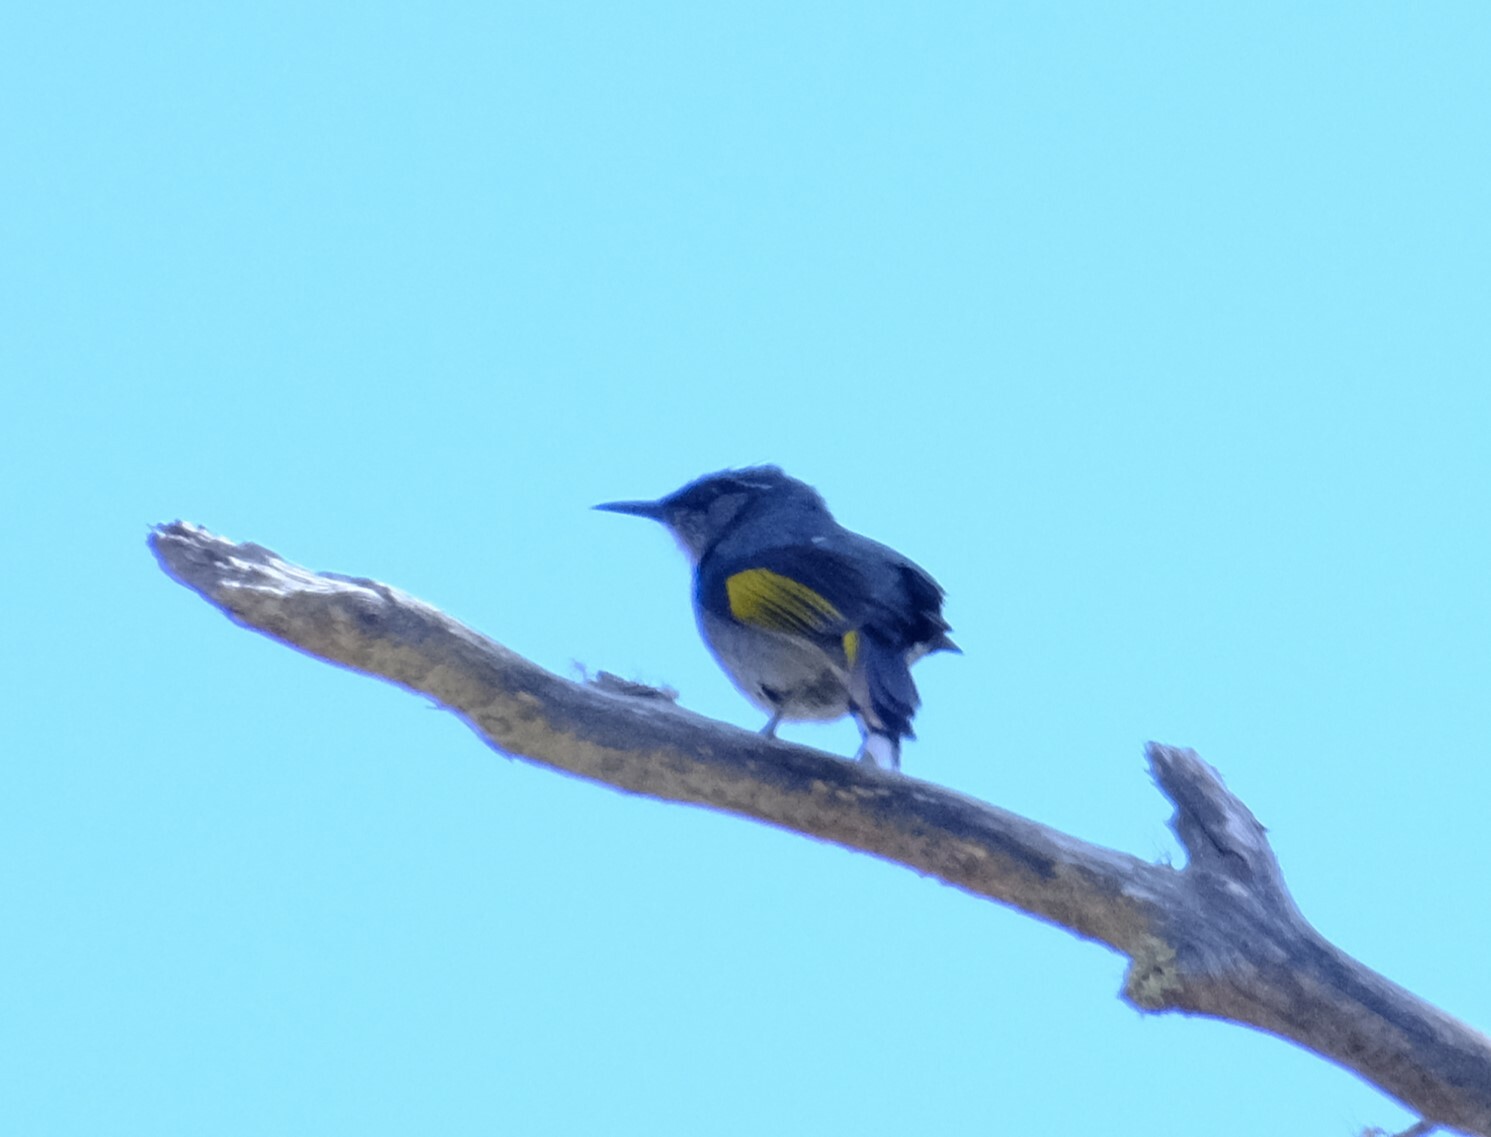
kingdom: Animalia
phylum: Chordata
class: Aves
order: Passeriformes
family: Meliphagidae
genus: Phylidonyris
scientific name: Phylidonyris pyrrhopterus
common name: Crescent honeyeater
